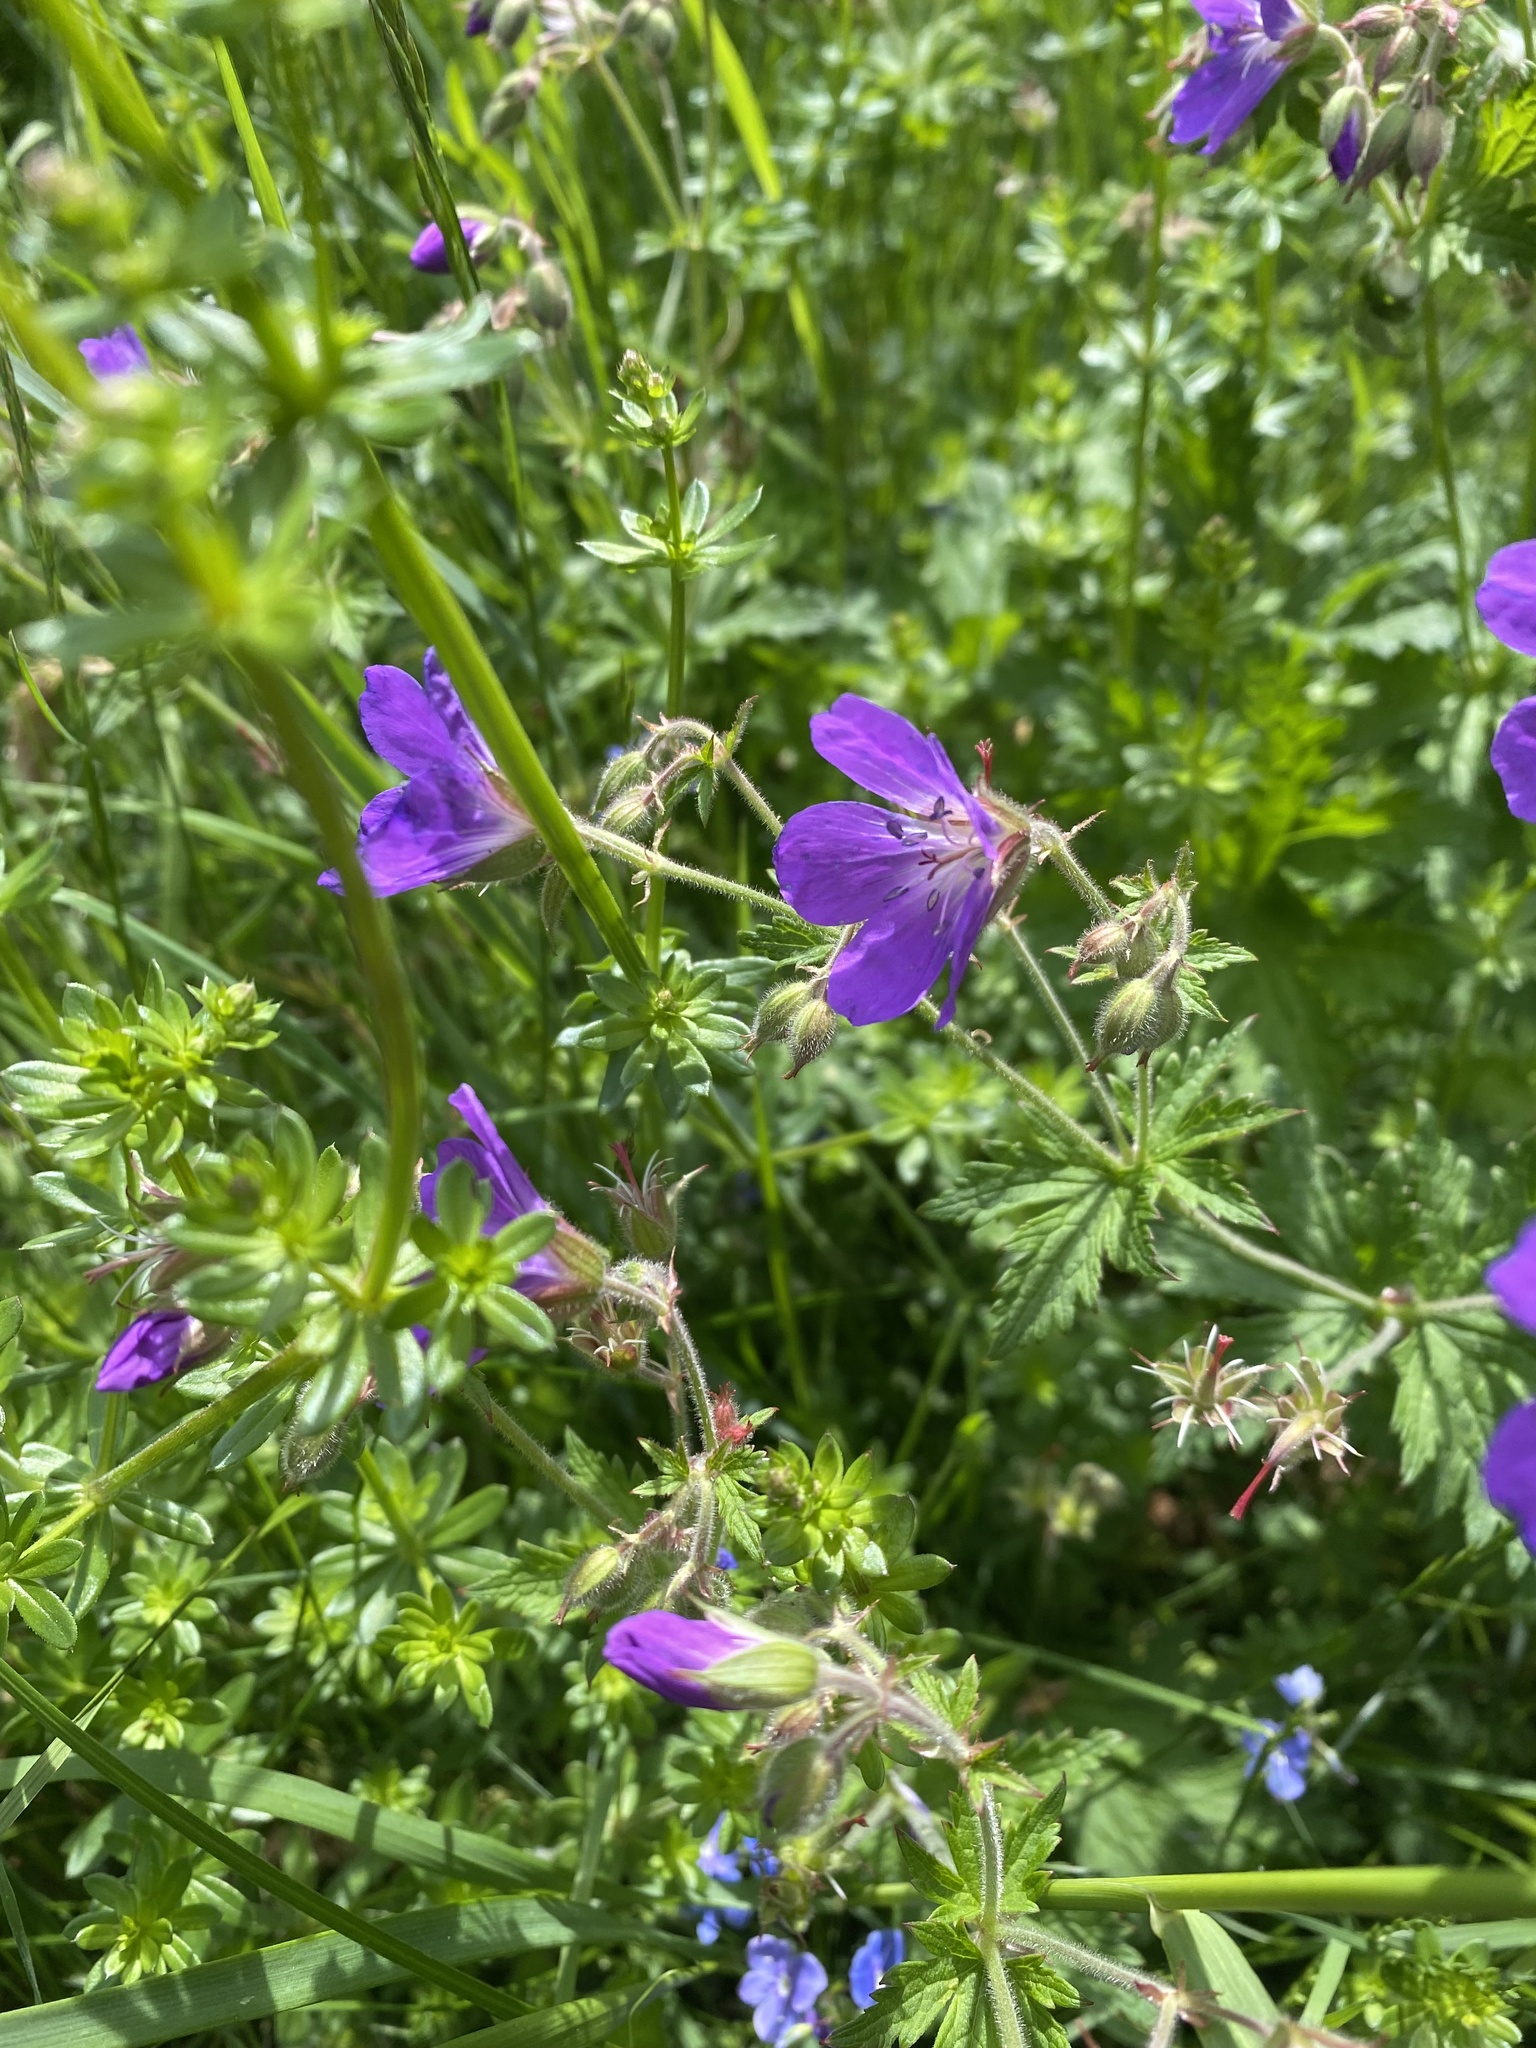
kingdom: Plantae
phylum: Tracheophyta
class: Magnoliopsida
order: Geraniales
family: Geraniaceae
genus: Geranium
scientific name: Geranium sylvaticum
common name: Wood crane's-bill
